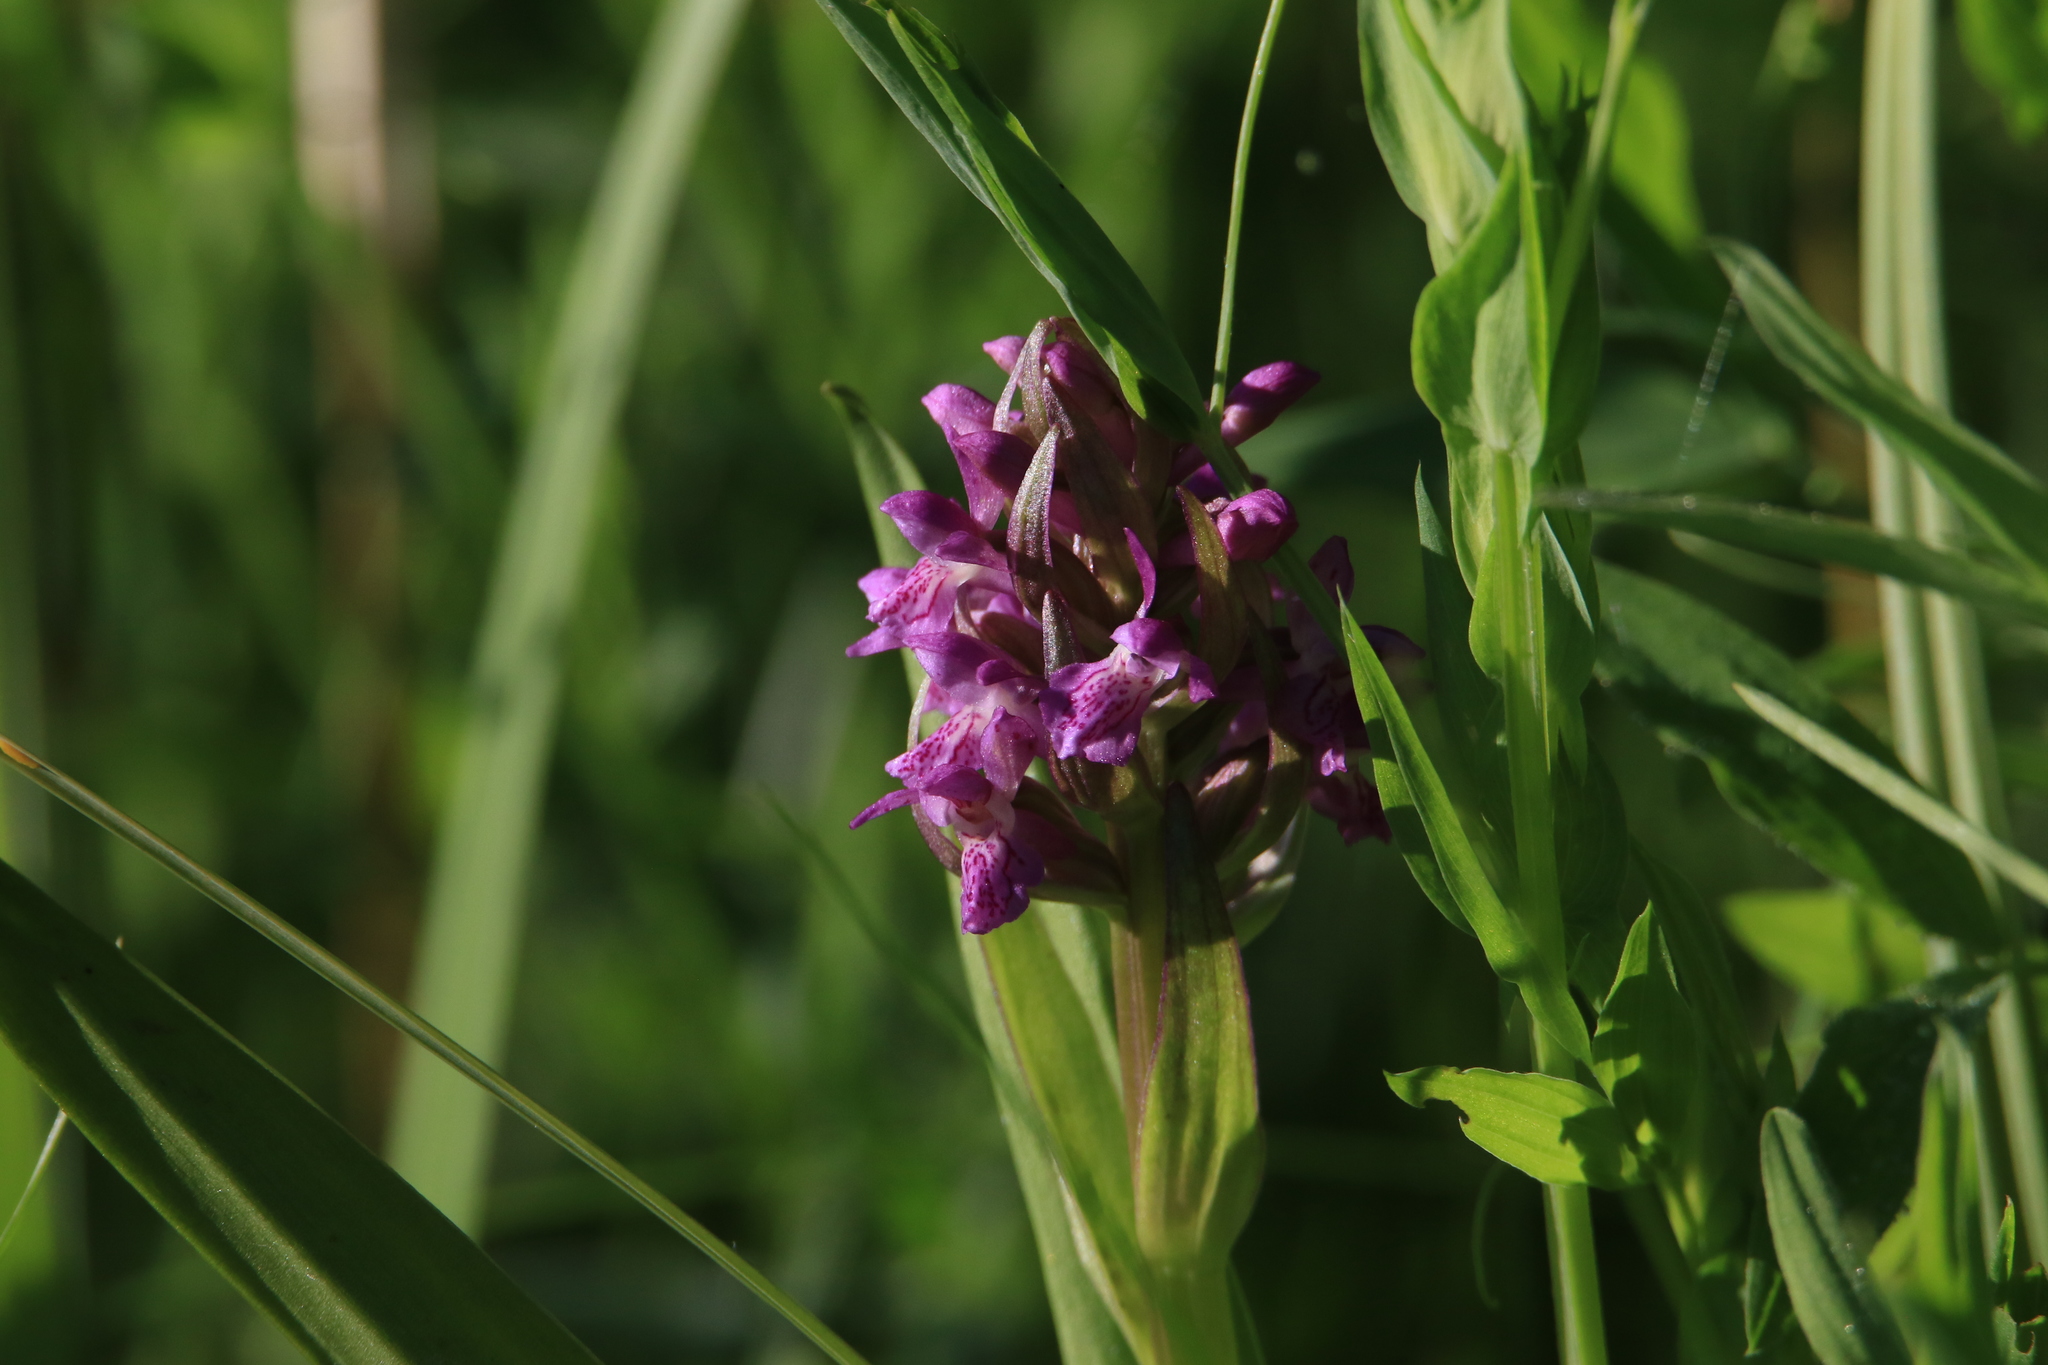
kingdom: Plantae
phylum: Tracheophyta
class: Liliopsida
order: Asparagales
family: Orchidaceae
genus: Dactylorhiza
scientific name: Dactylorhiza incarnata
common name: Early marsh-orchid
